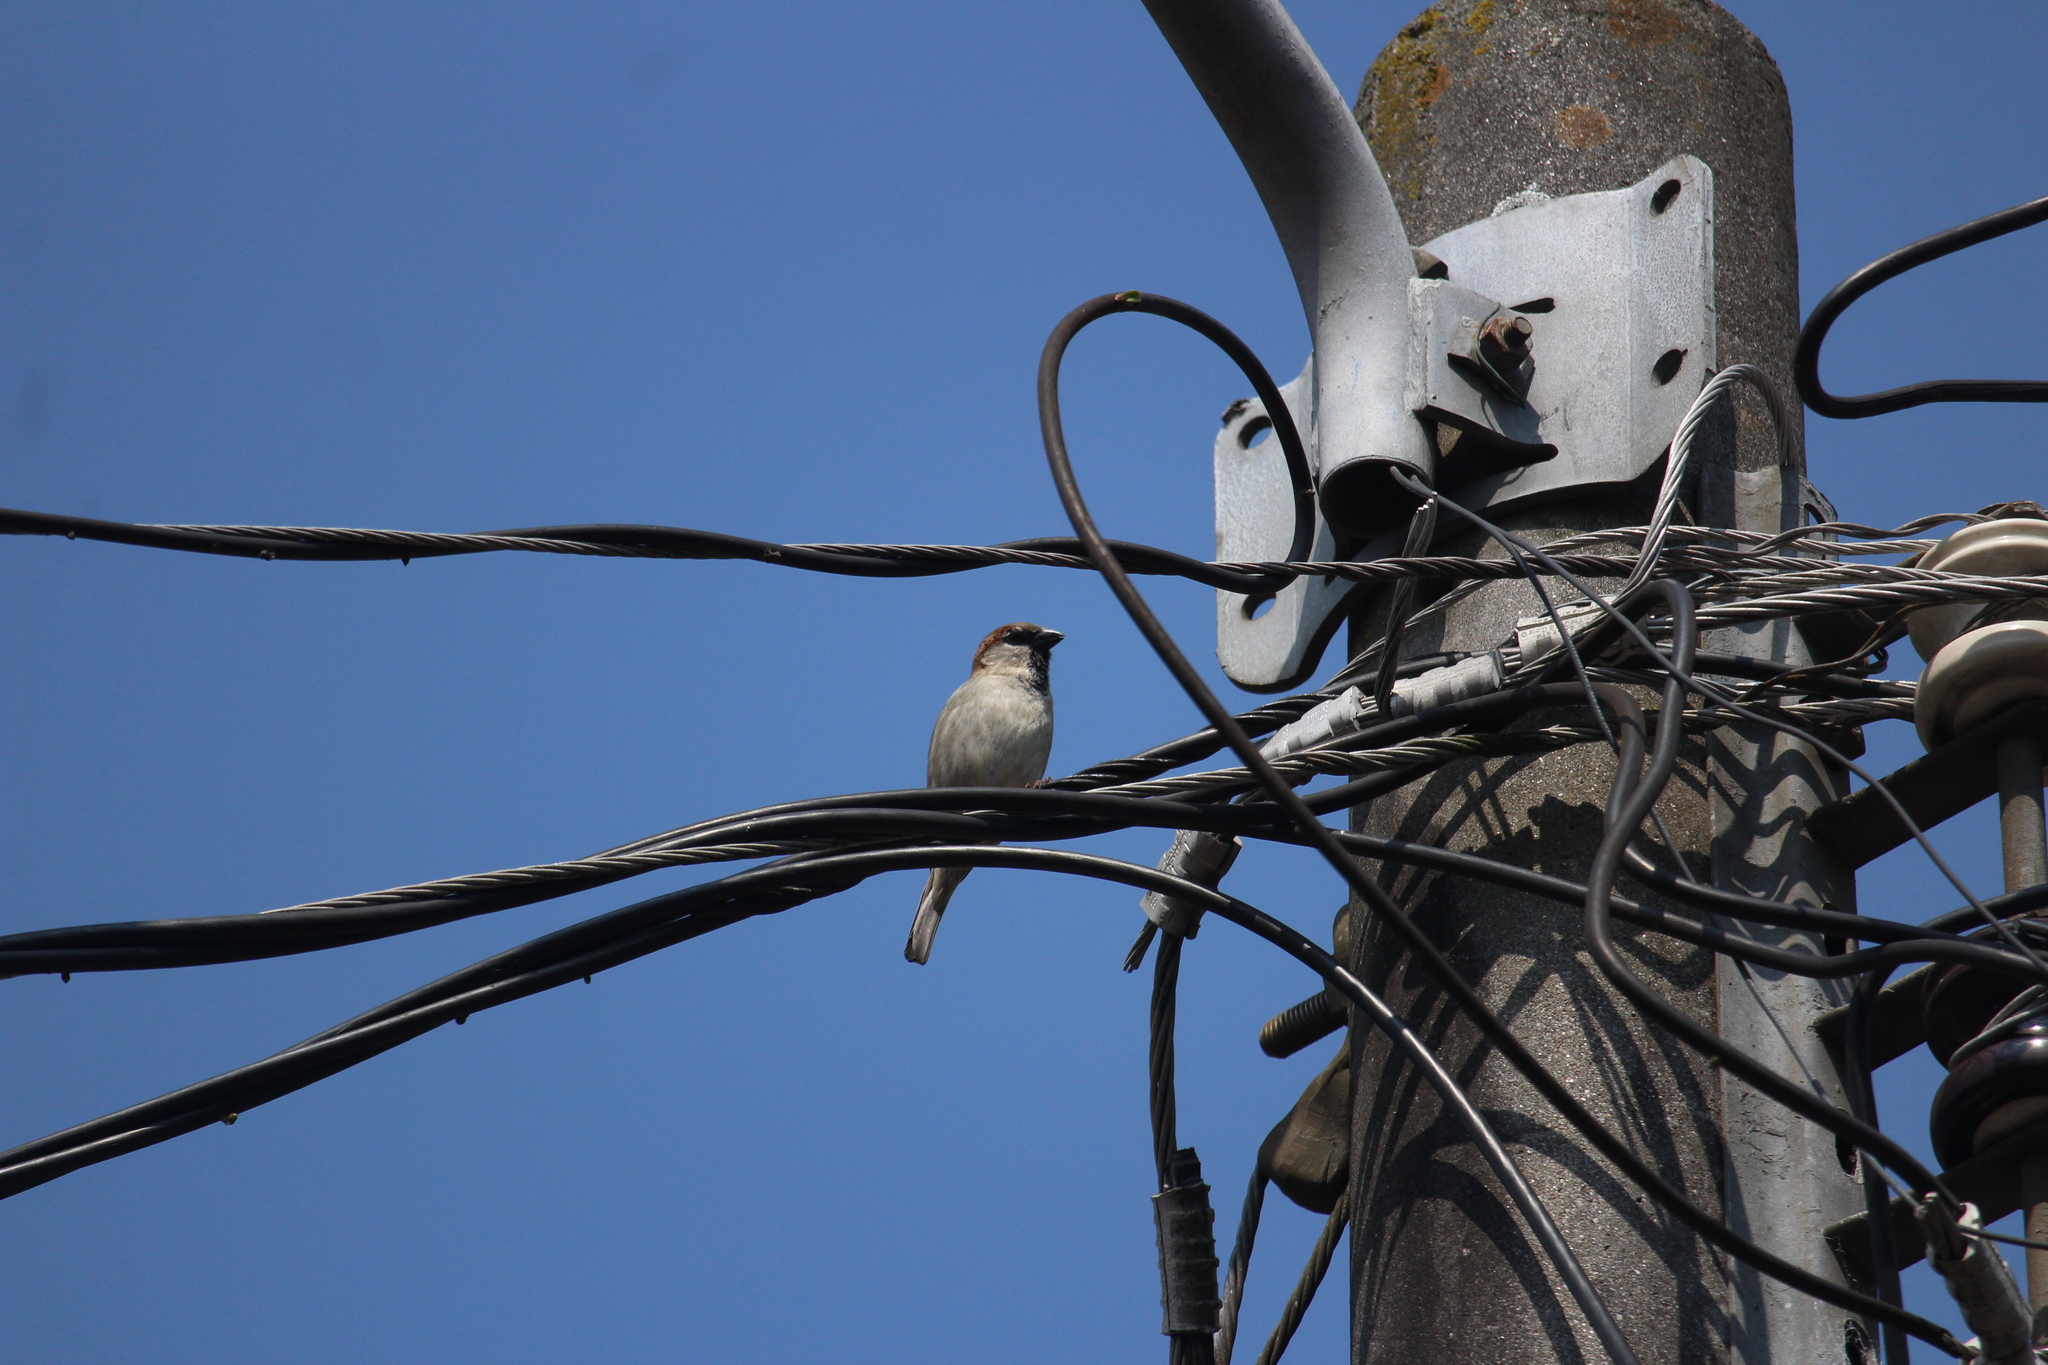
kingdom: Animalia
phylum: Chordata
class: Aves
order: Passeriformes
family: Passeridae
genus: Passer
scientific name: Passer domesticus
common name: House sparrow
